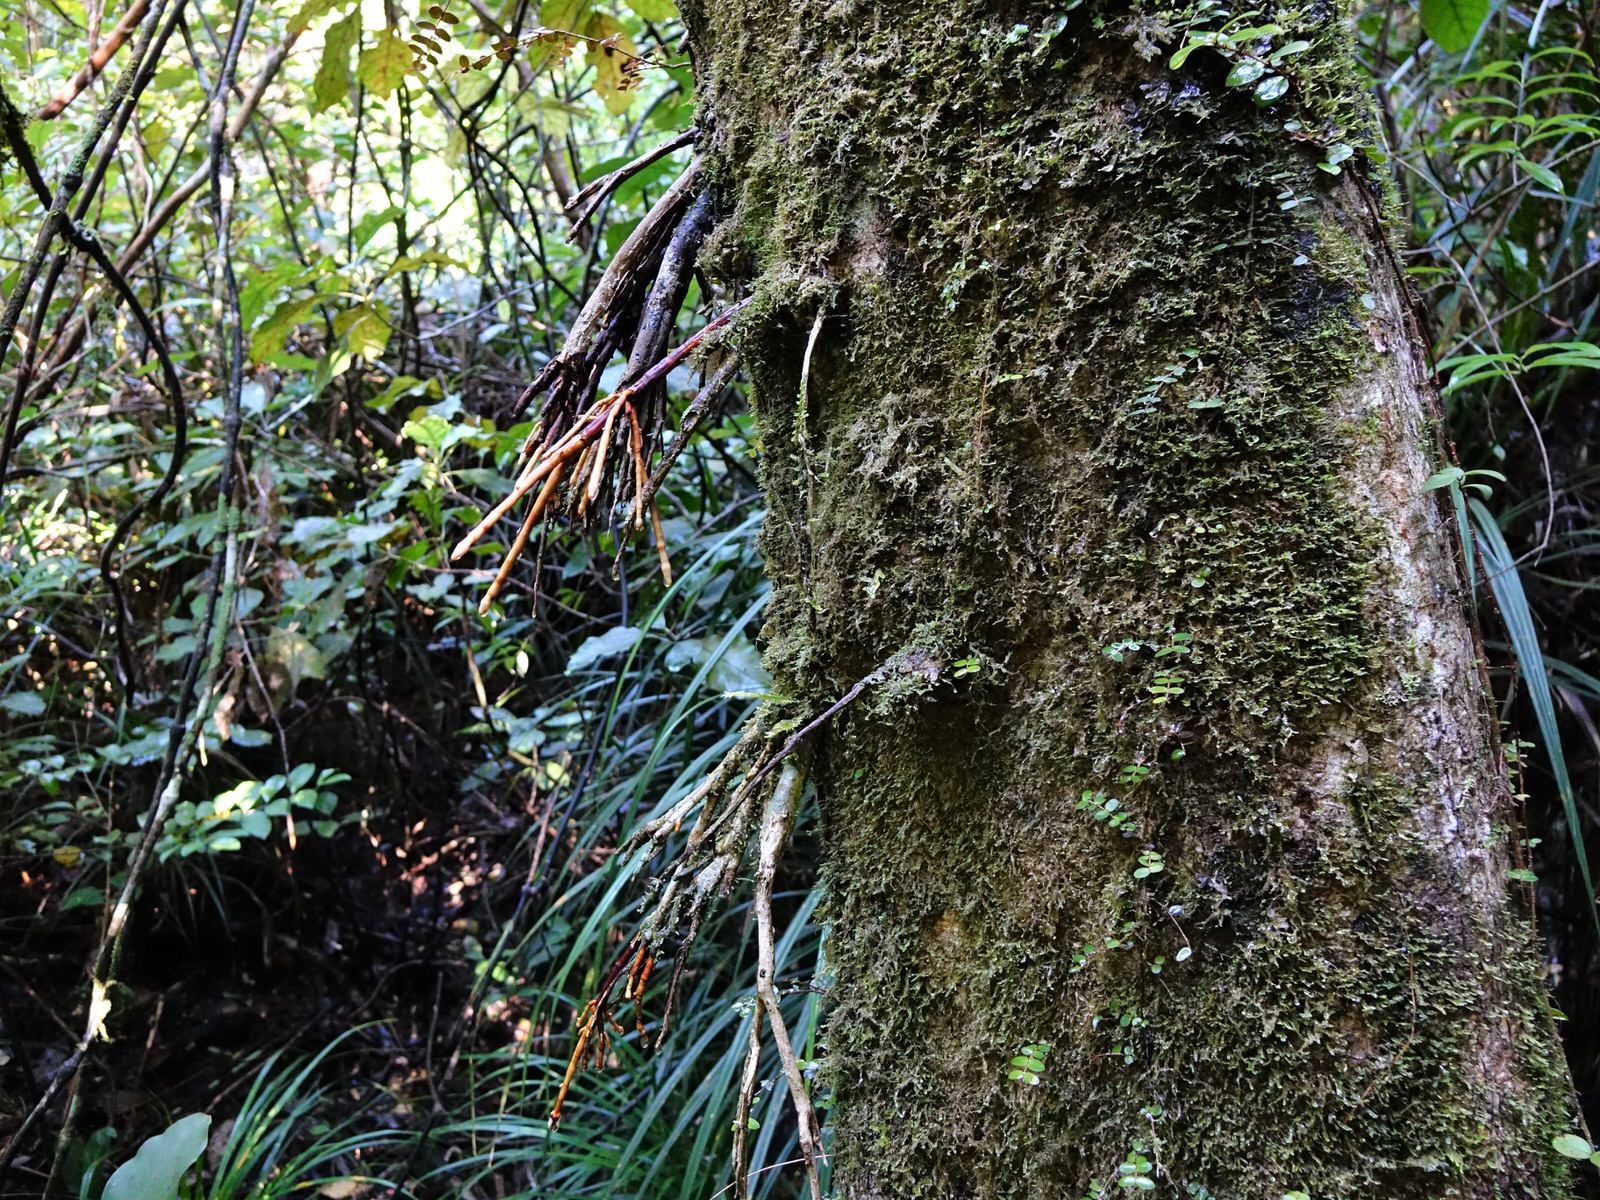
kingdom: Plantae
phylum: Tracheophyta
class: Magnoliopsida
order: Myrtales
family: Myrtaceae
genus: Syzygium
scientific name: Syzygium maire
